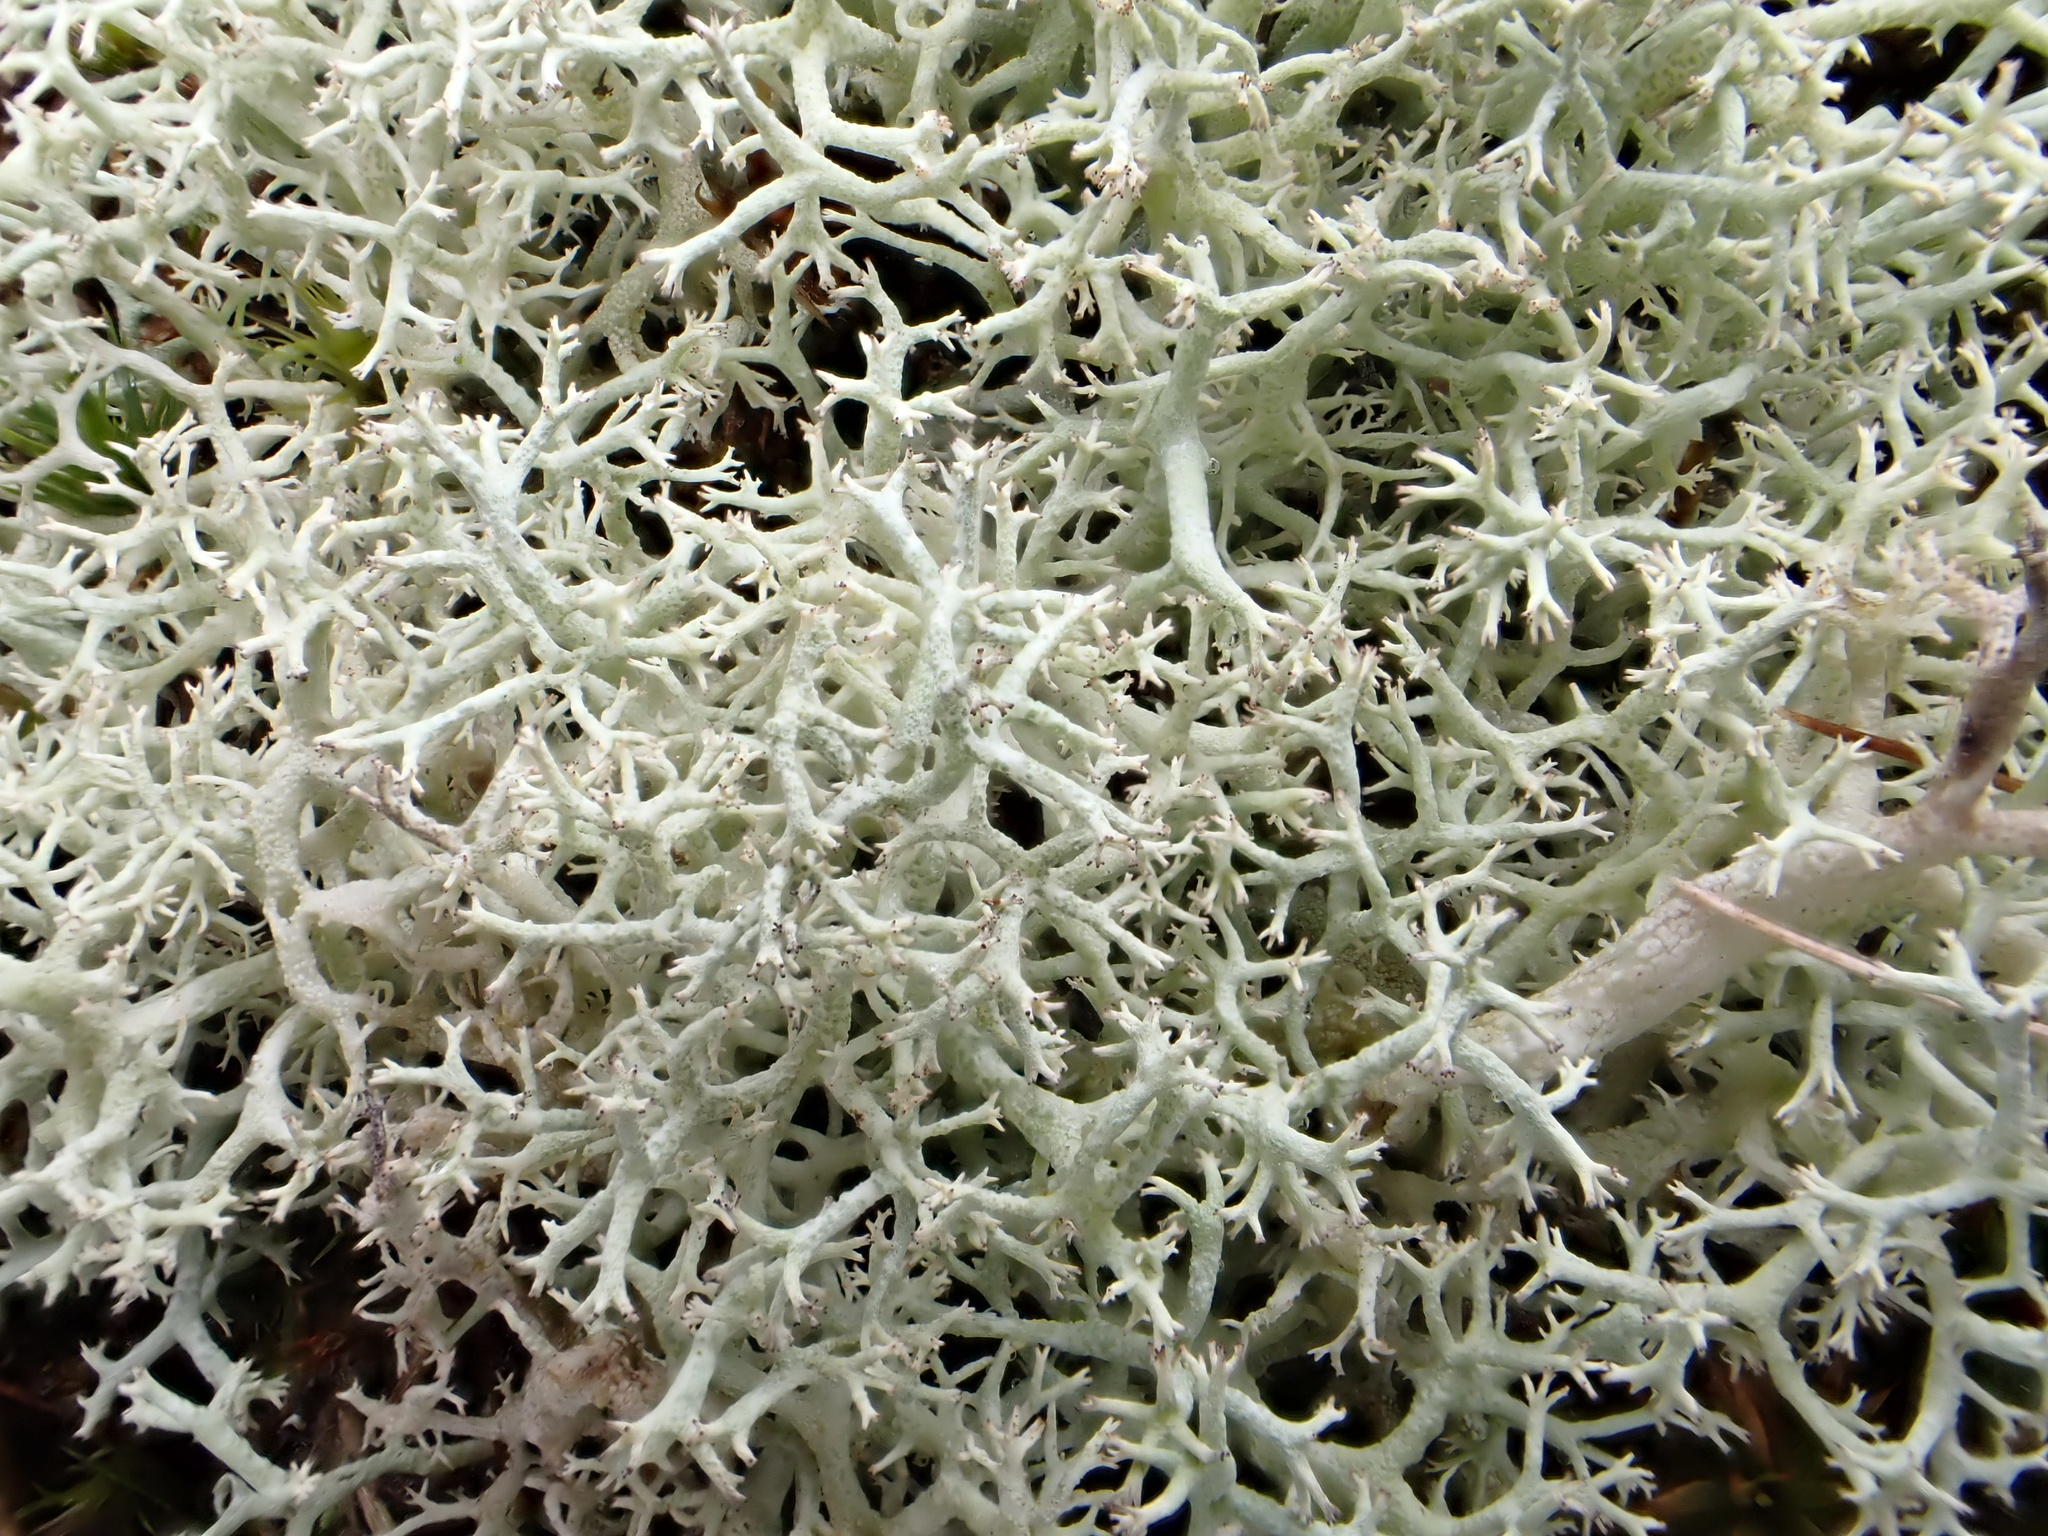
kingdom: Fungi
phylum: Ascomycota
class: Lecanoromycetes
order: Lecanorales
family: Cladoniaceae
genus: Cladonia
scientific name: Cladonia portentosa
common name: Reindeer lichen
